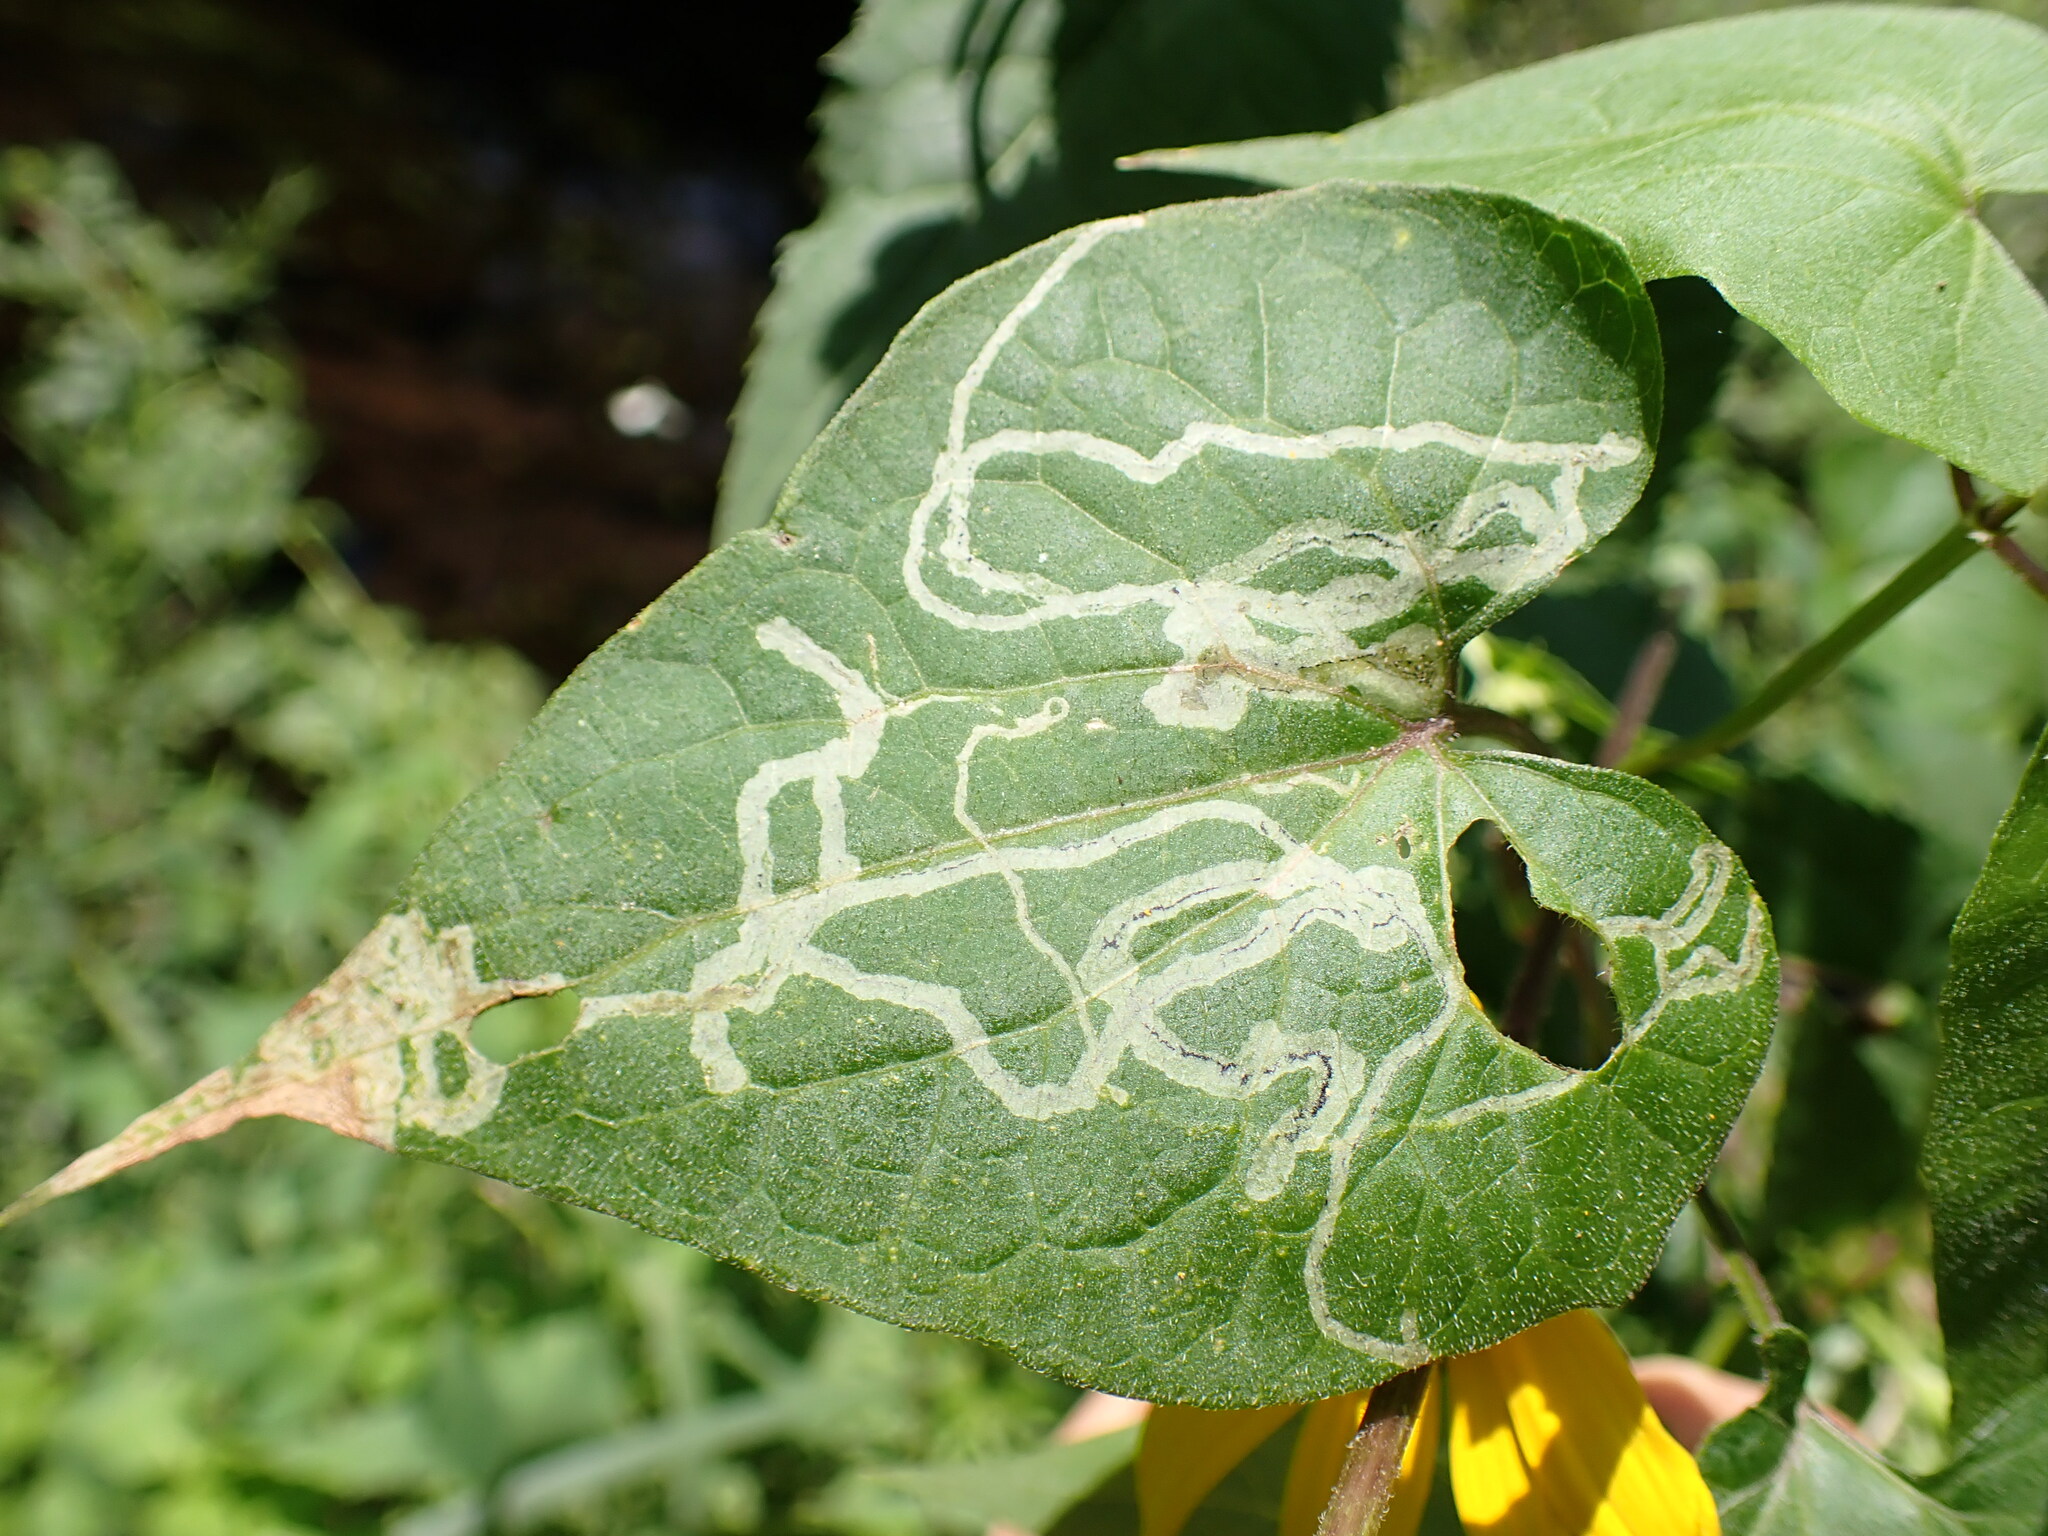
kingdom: Animalia
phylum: Arthropoda
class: Insecta
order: Diptera
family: Agromyzidae
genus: Liriomyza
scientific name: Liriomyza cracentis
